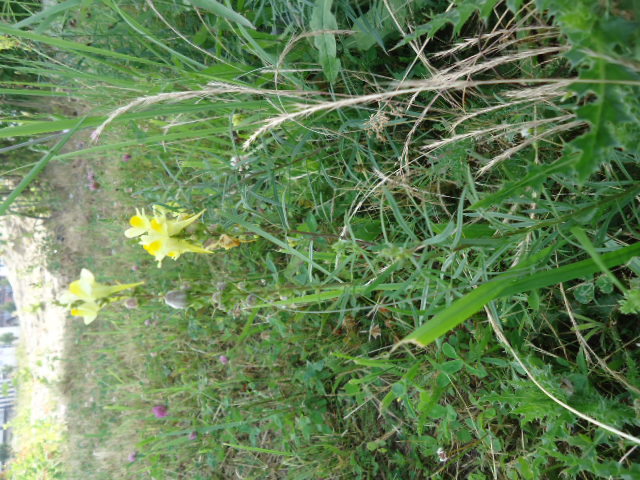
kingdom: Plantae
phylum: Tracheophyta
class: Magnoliopsida
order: Lamiales
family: Plantaginaceae
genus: Linaria
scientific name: Linaria vulgaris
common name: Butter and eggs
